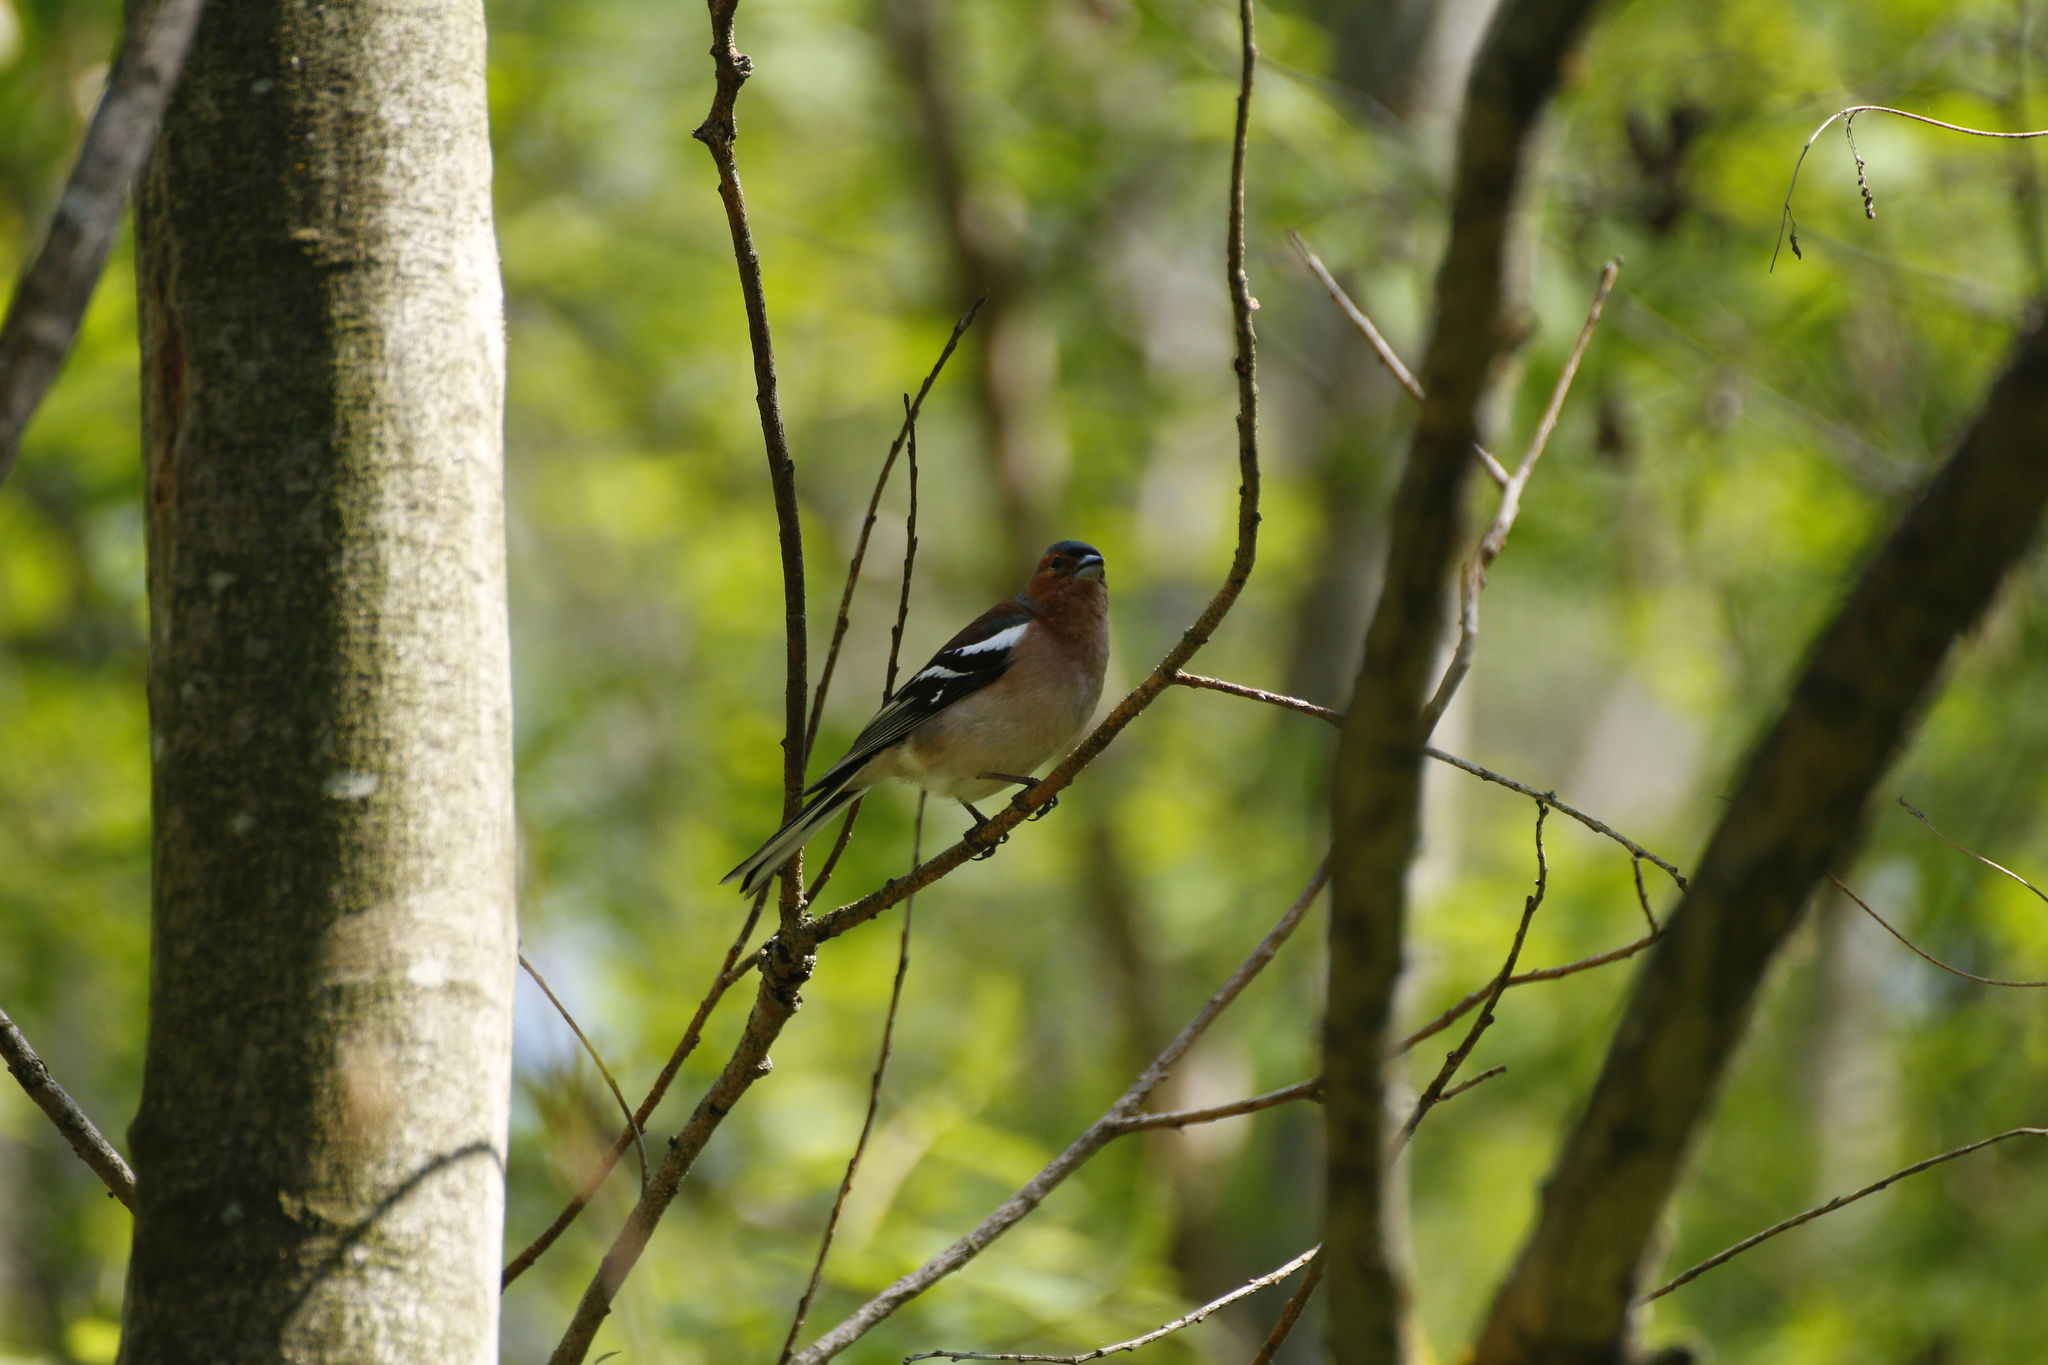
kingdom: Animalia
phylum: Chordata
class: Aves
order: Passeriformes
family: Fringillidae
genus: Fringilla
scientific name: Fringilla coelebs
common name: Common chaffinch
